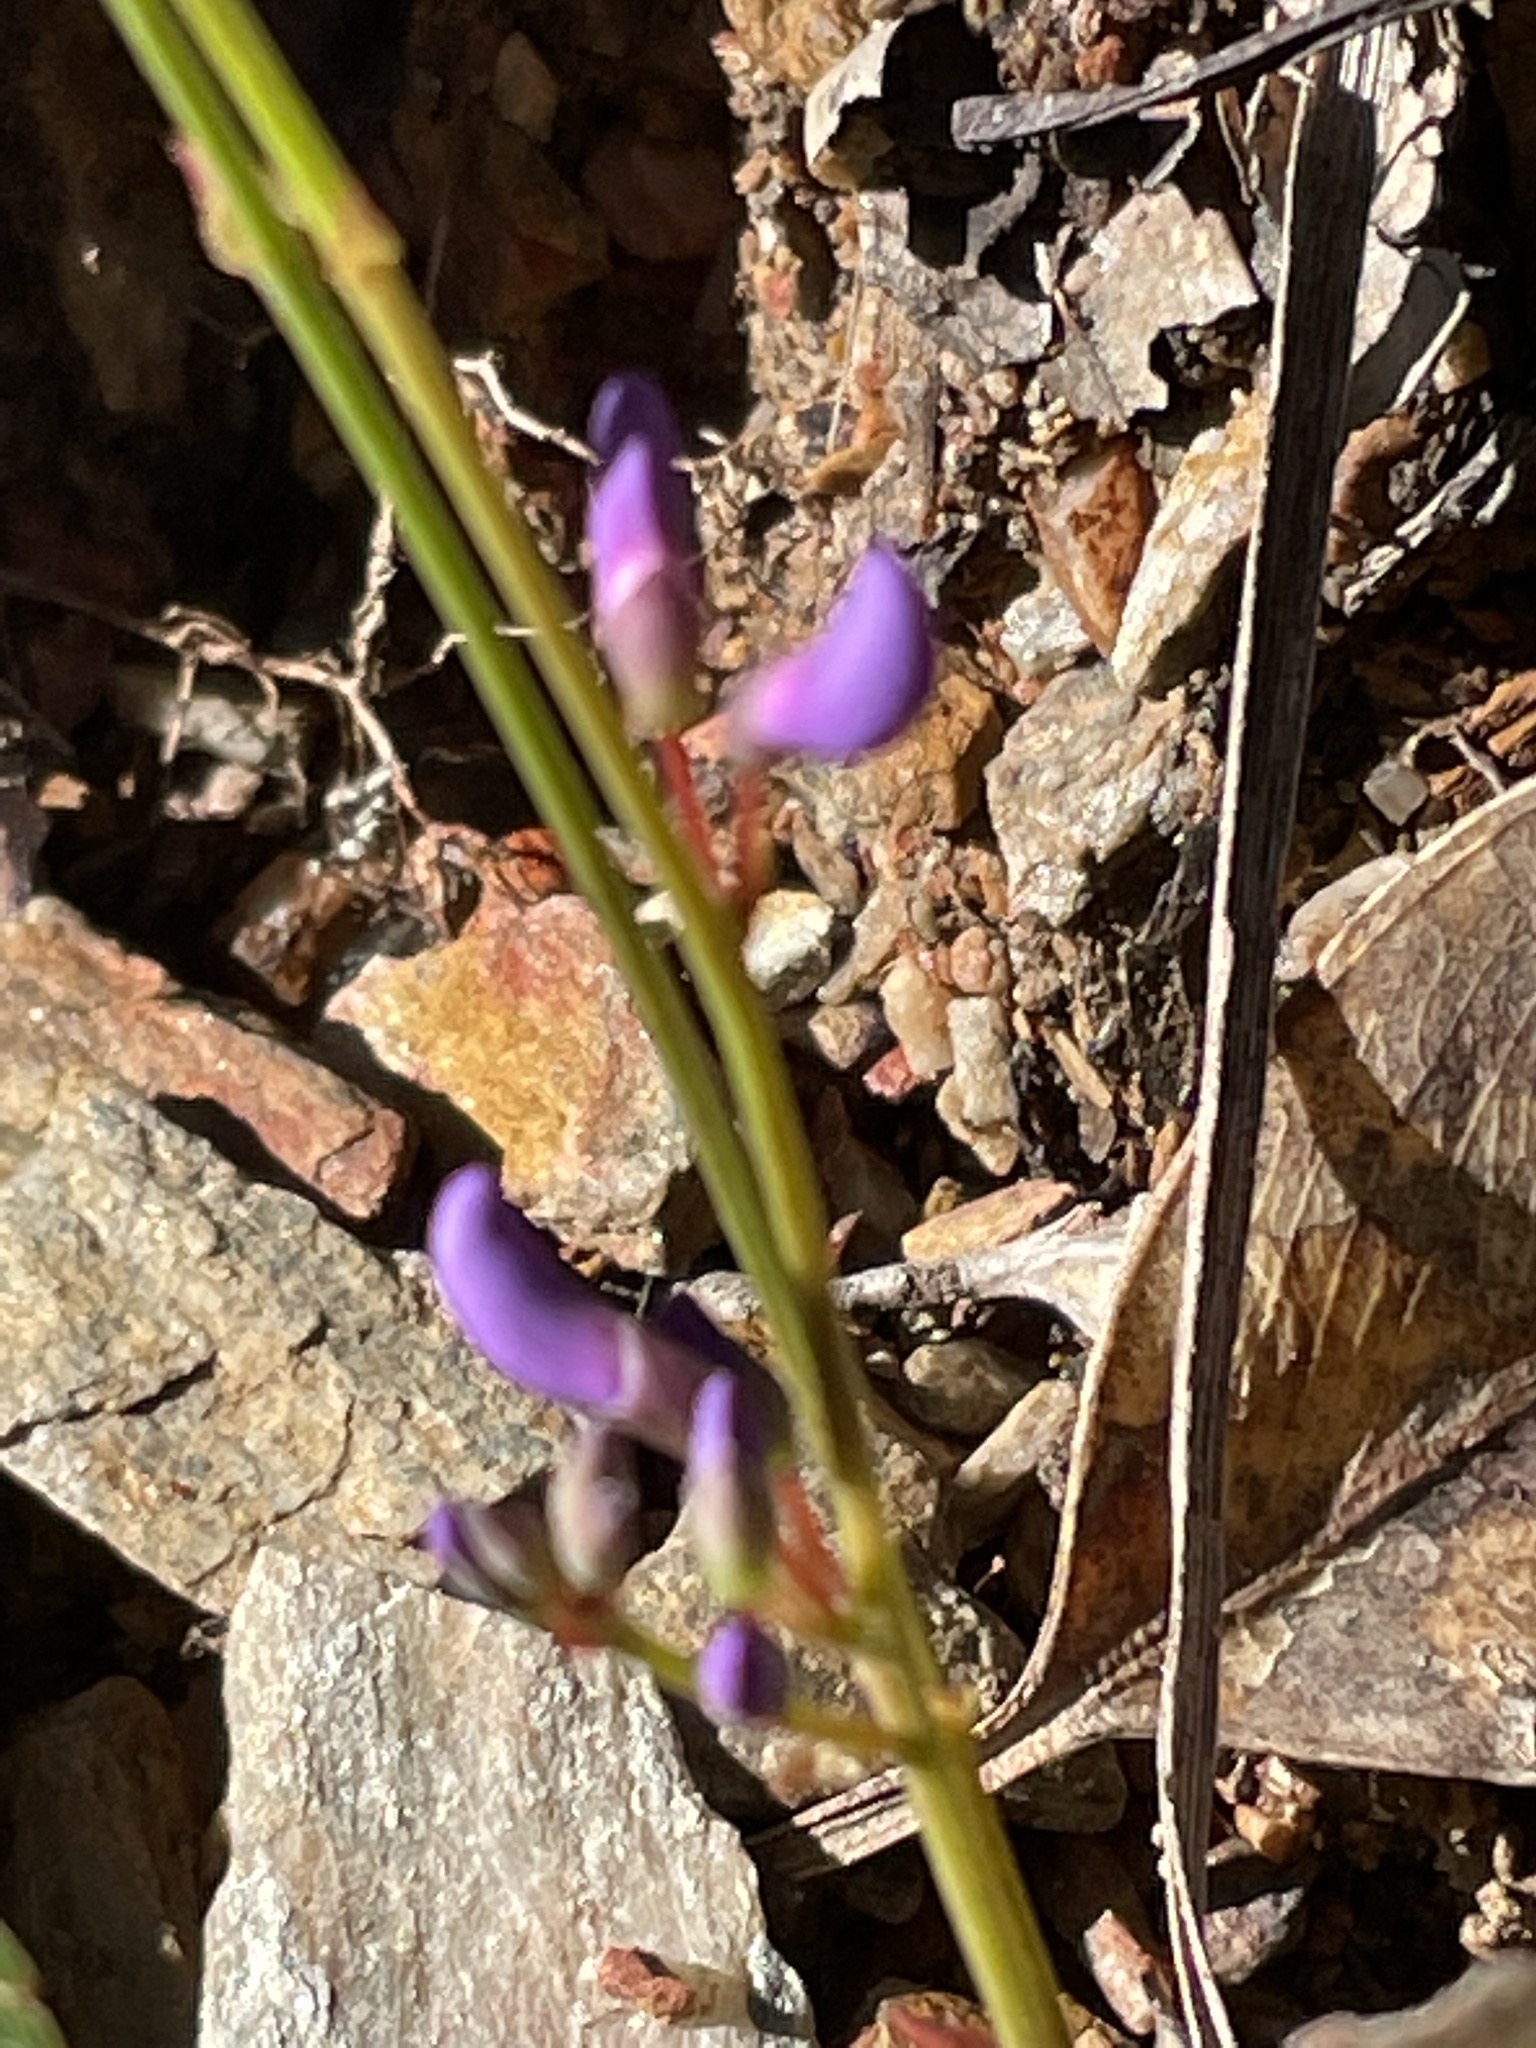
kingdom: Plantae
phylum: Tracheophyta
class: Magnoliopsida
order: Fabales
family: Fabaceae
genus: Hardenbergia
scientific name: Hardenbergia violacea
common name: Coral-pea
